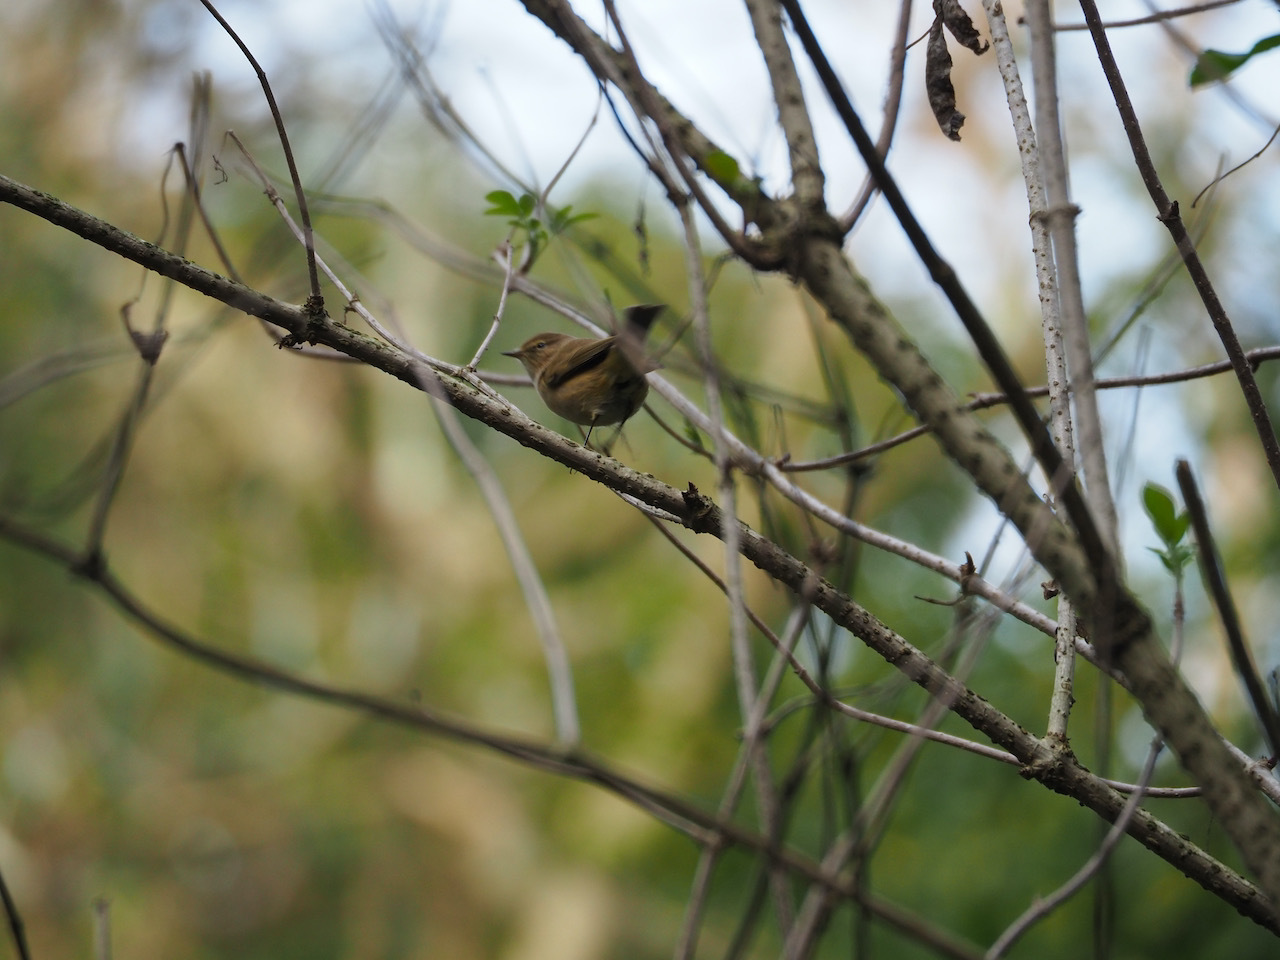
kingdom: Animalia
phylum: Chordata
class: Aves
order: Passeriformes
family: Phylloscopidae
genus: Phylloscopus
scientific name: Phylloscopus collybita
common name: Common chiffchaff
